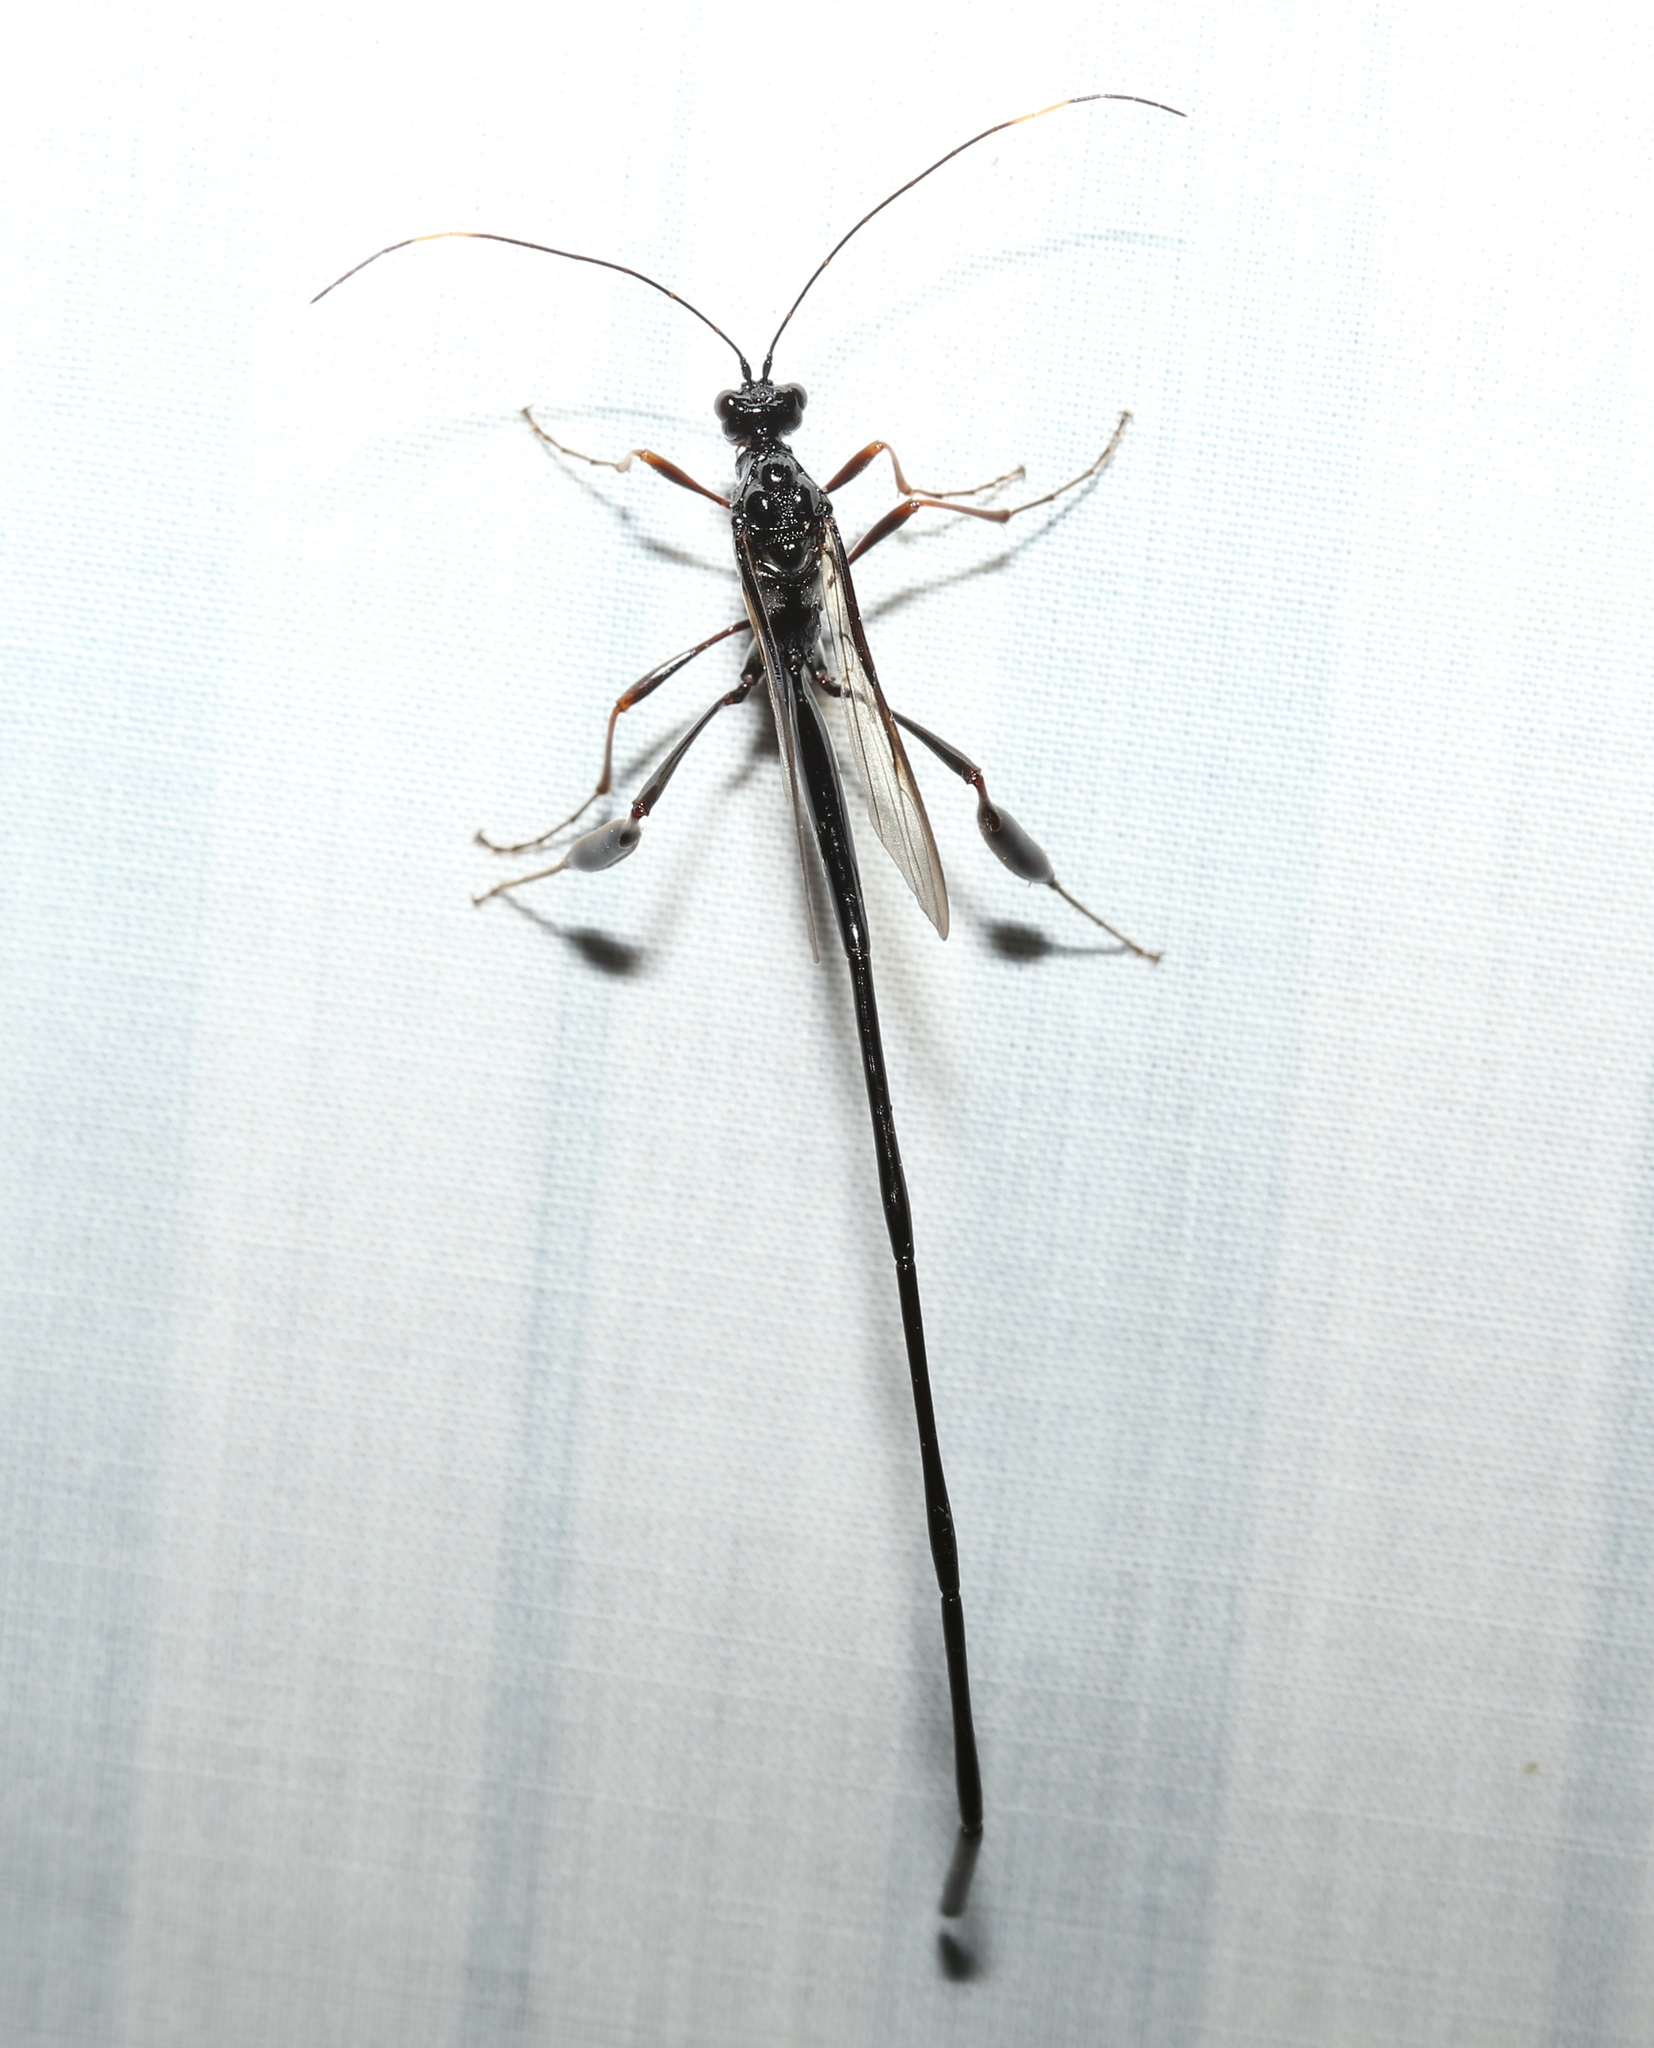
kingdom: Animalia
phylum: Arthropoda
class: Insecta
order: Hymenoptera
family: Pelecinidae
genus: Pelecinus
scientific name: Pelecinus polyturator
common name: American pelecinid wasp
